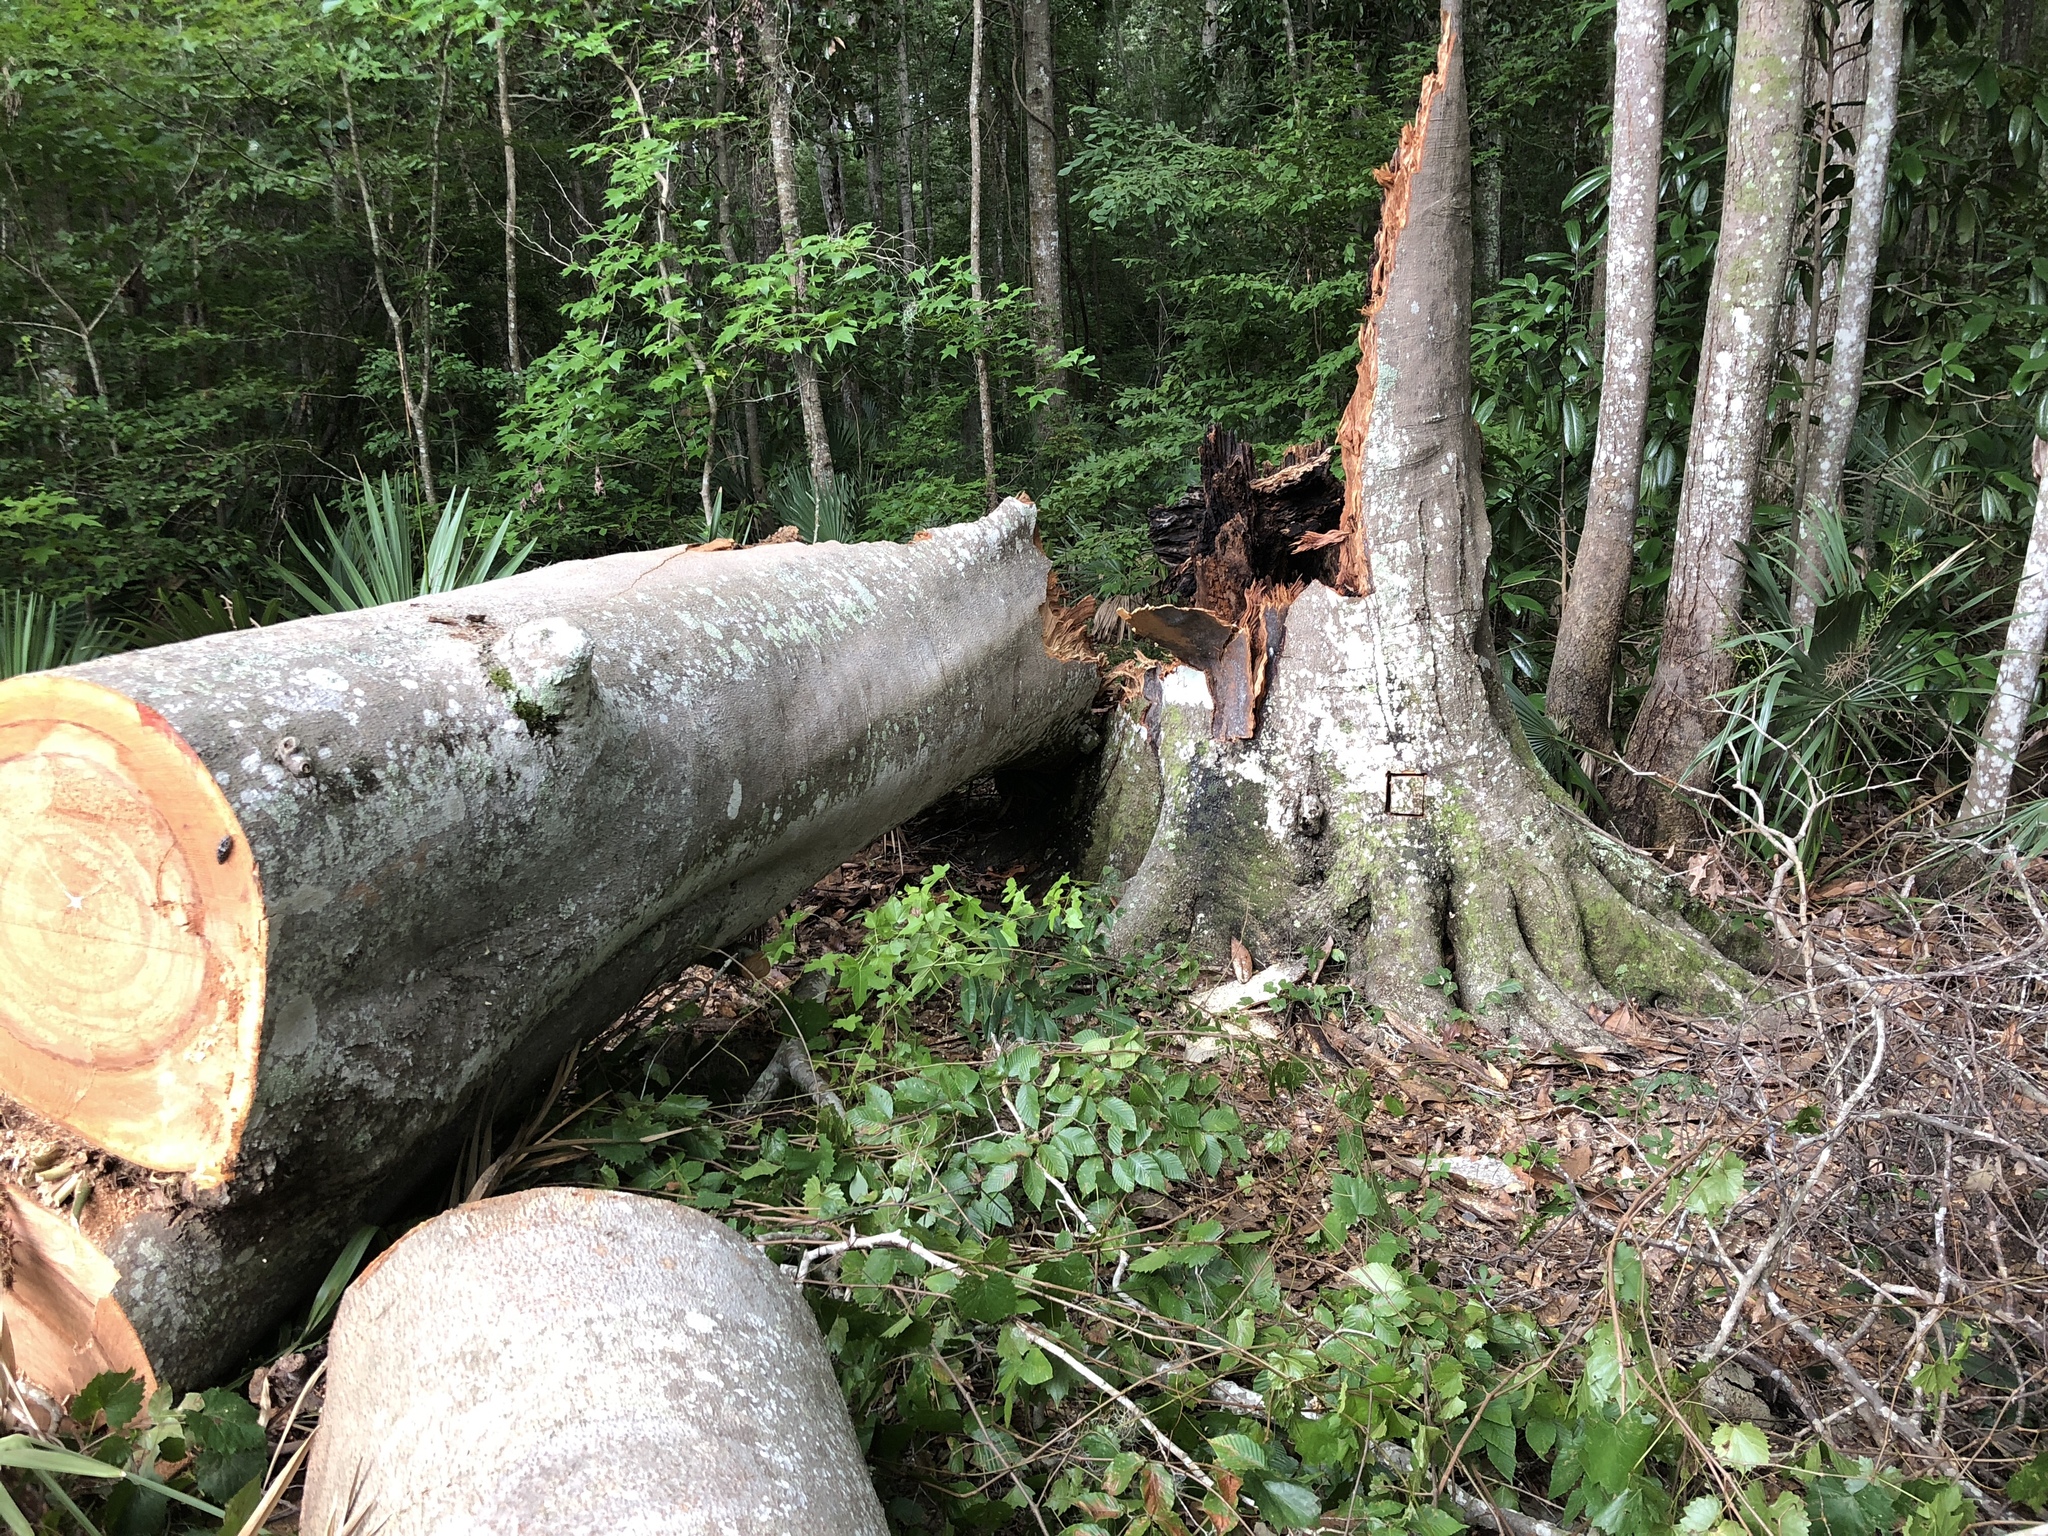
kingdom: Plantae
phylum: Tracheophyta
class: Magnoliopsida
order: Fagales
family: Fagaceae
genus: Fagus
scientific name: Fagus grandifolia
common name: American beech
